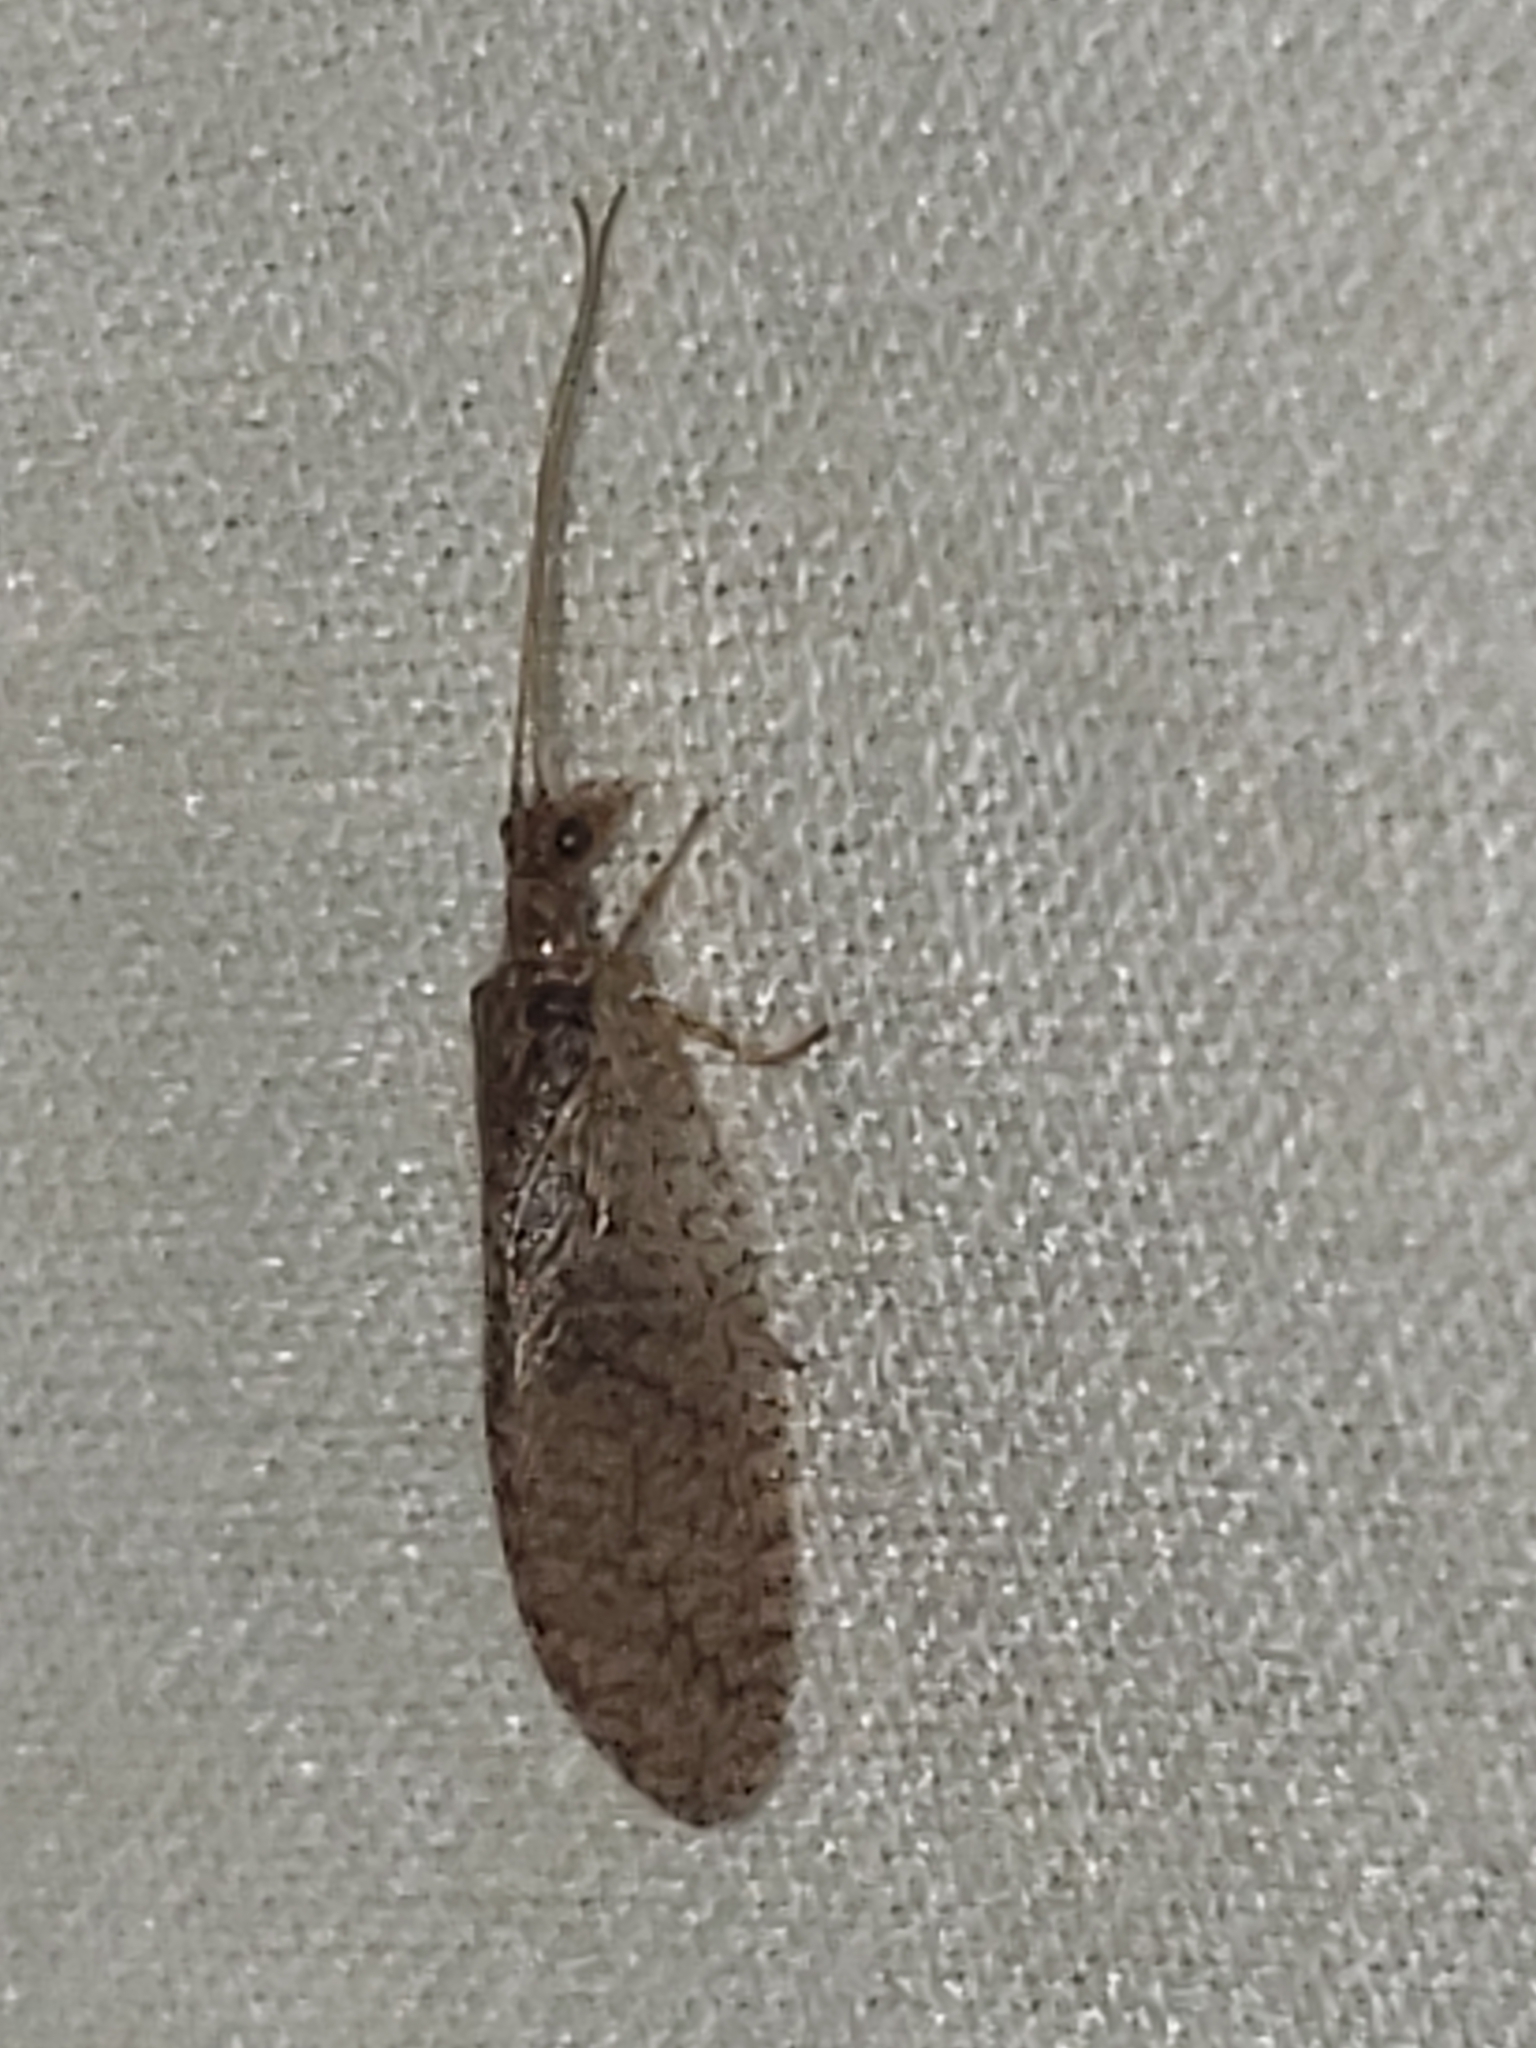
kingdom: Animalia
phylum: Arthropoda
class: Insecta
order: Neuroptera
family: Hemerobiidae
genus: Micromus
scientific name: Micromus posticus
